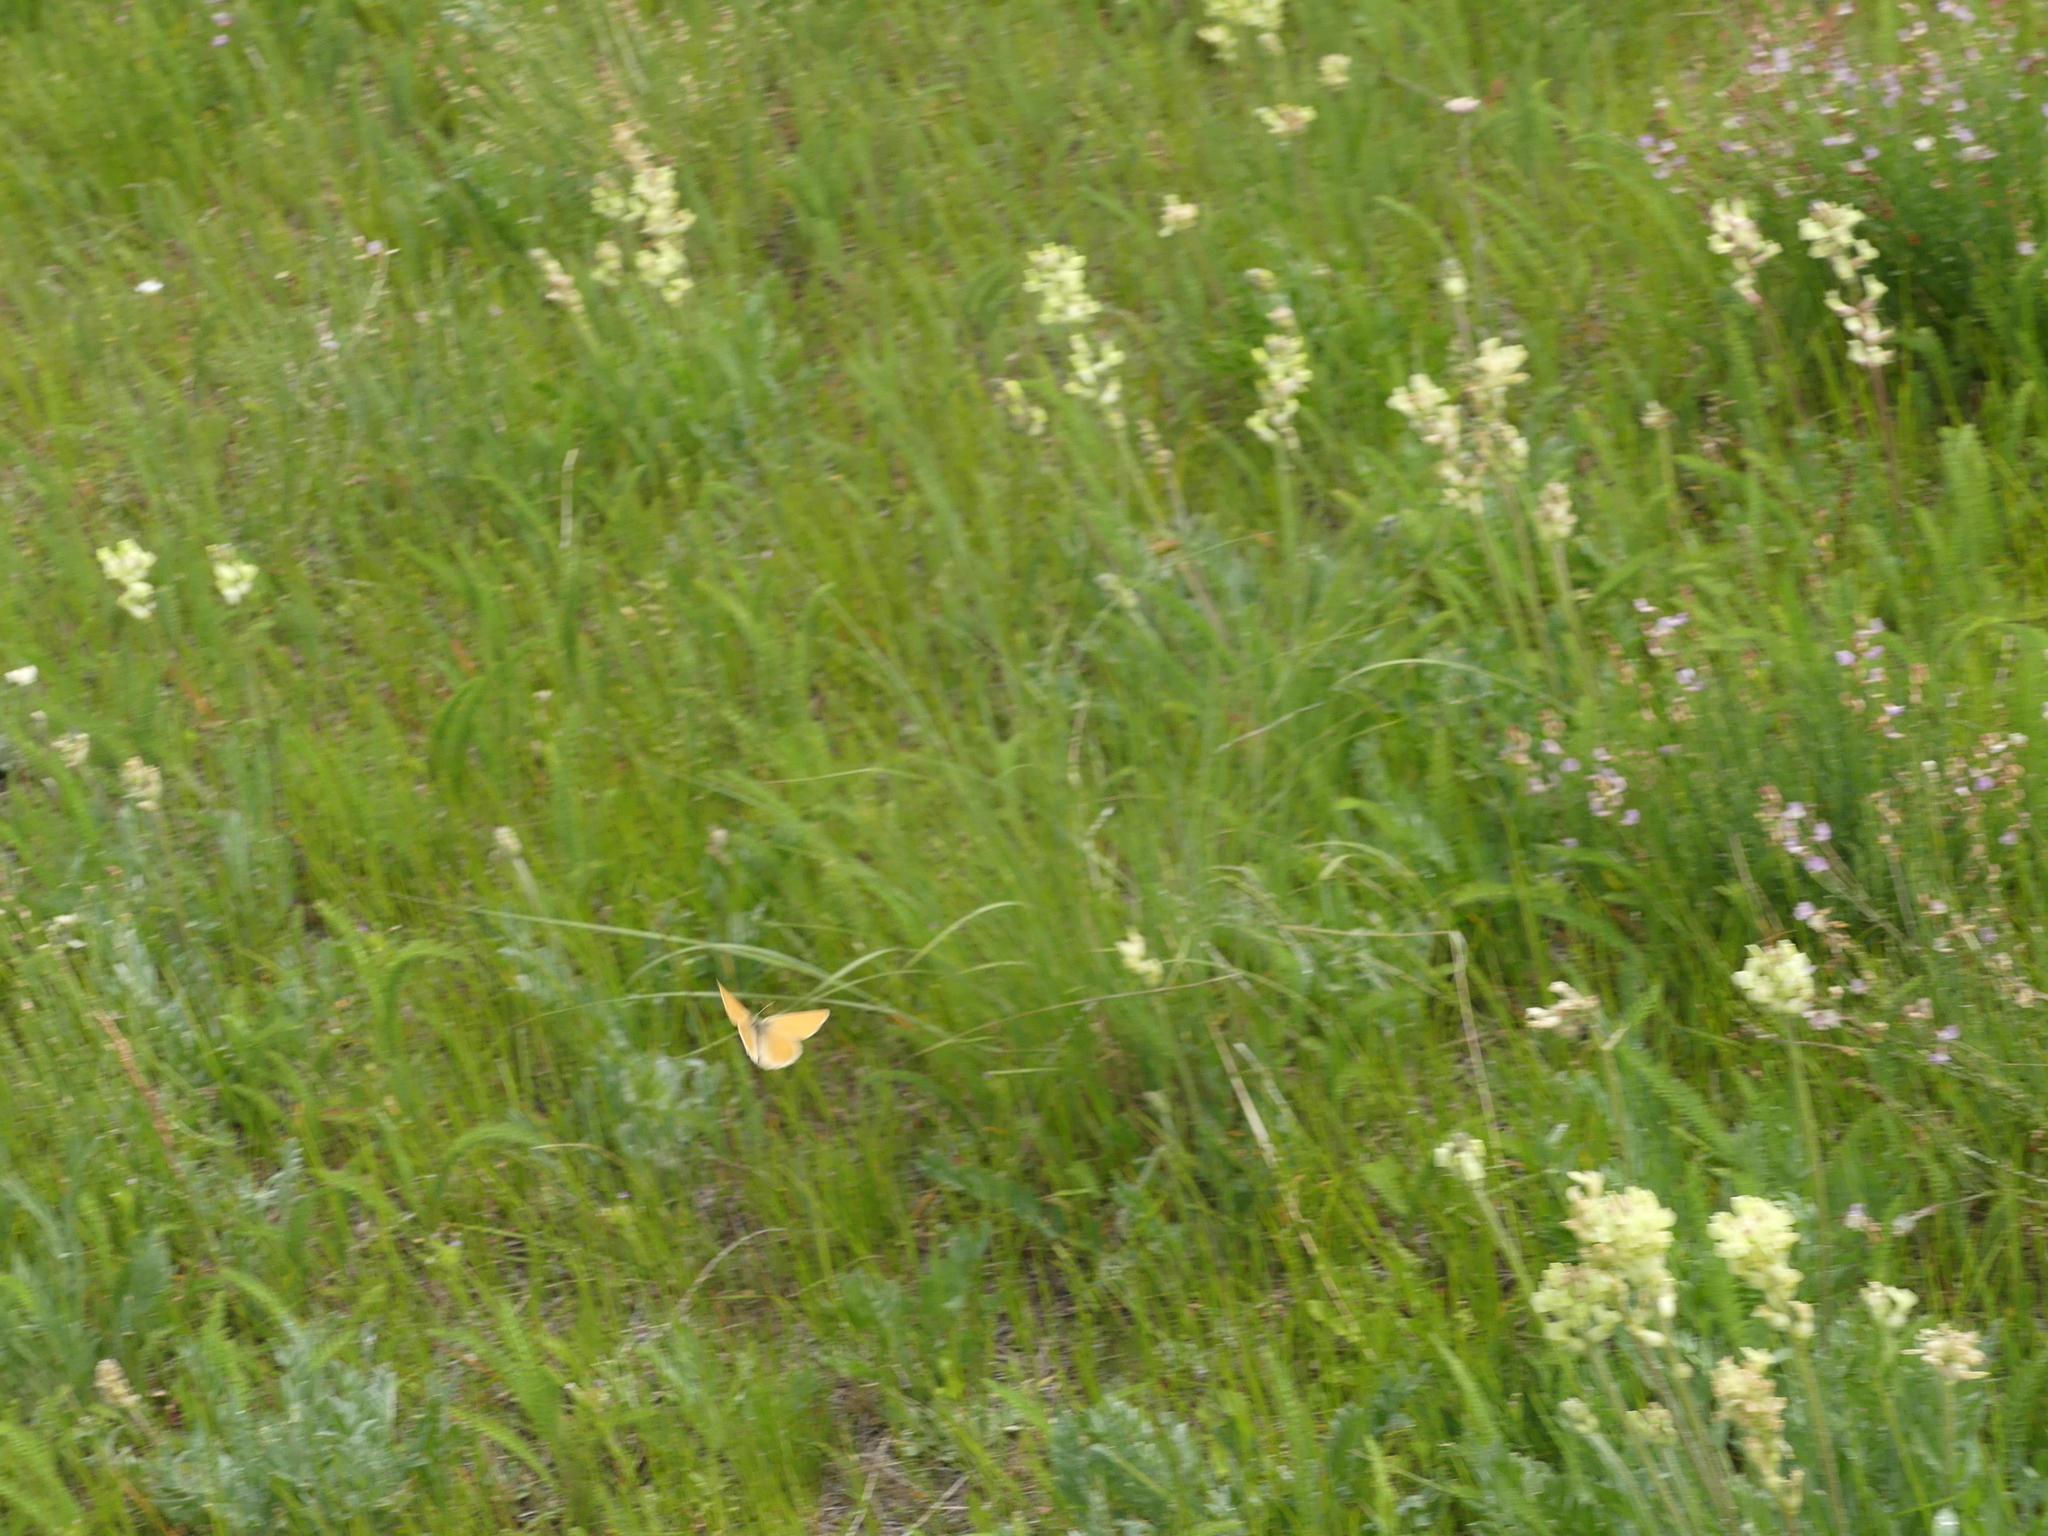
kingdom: Animalia
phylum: Arthropoda
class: Insecta
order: Lepidoptera
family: Nymphalidae
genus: Coenonympha
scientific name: Coenonympha california
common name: Common ringlet
